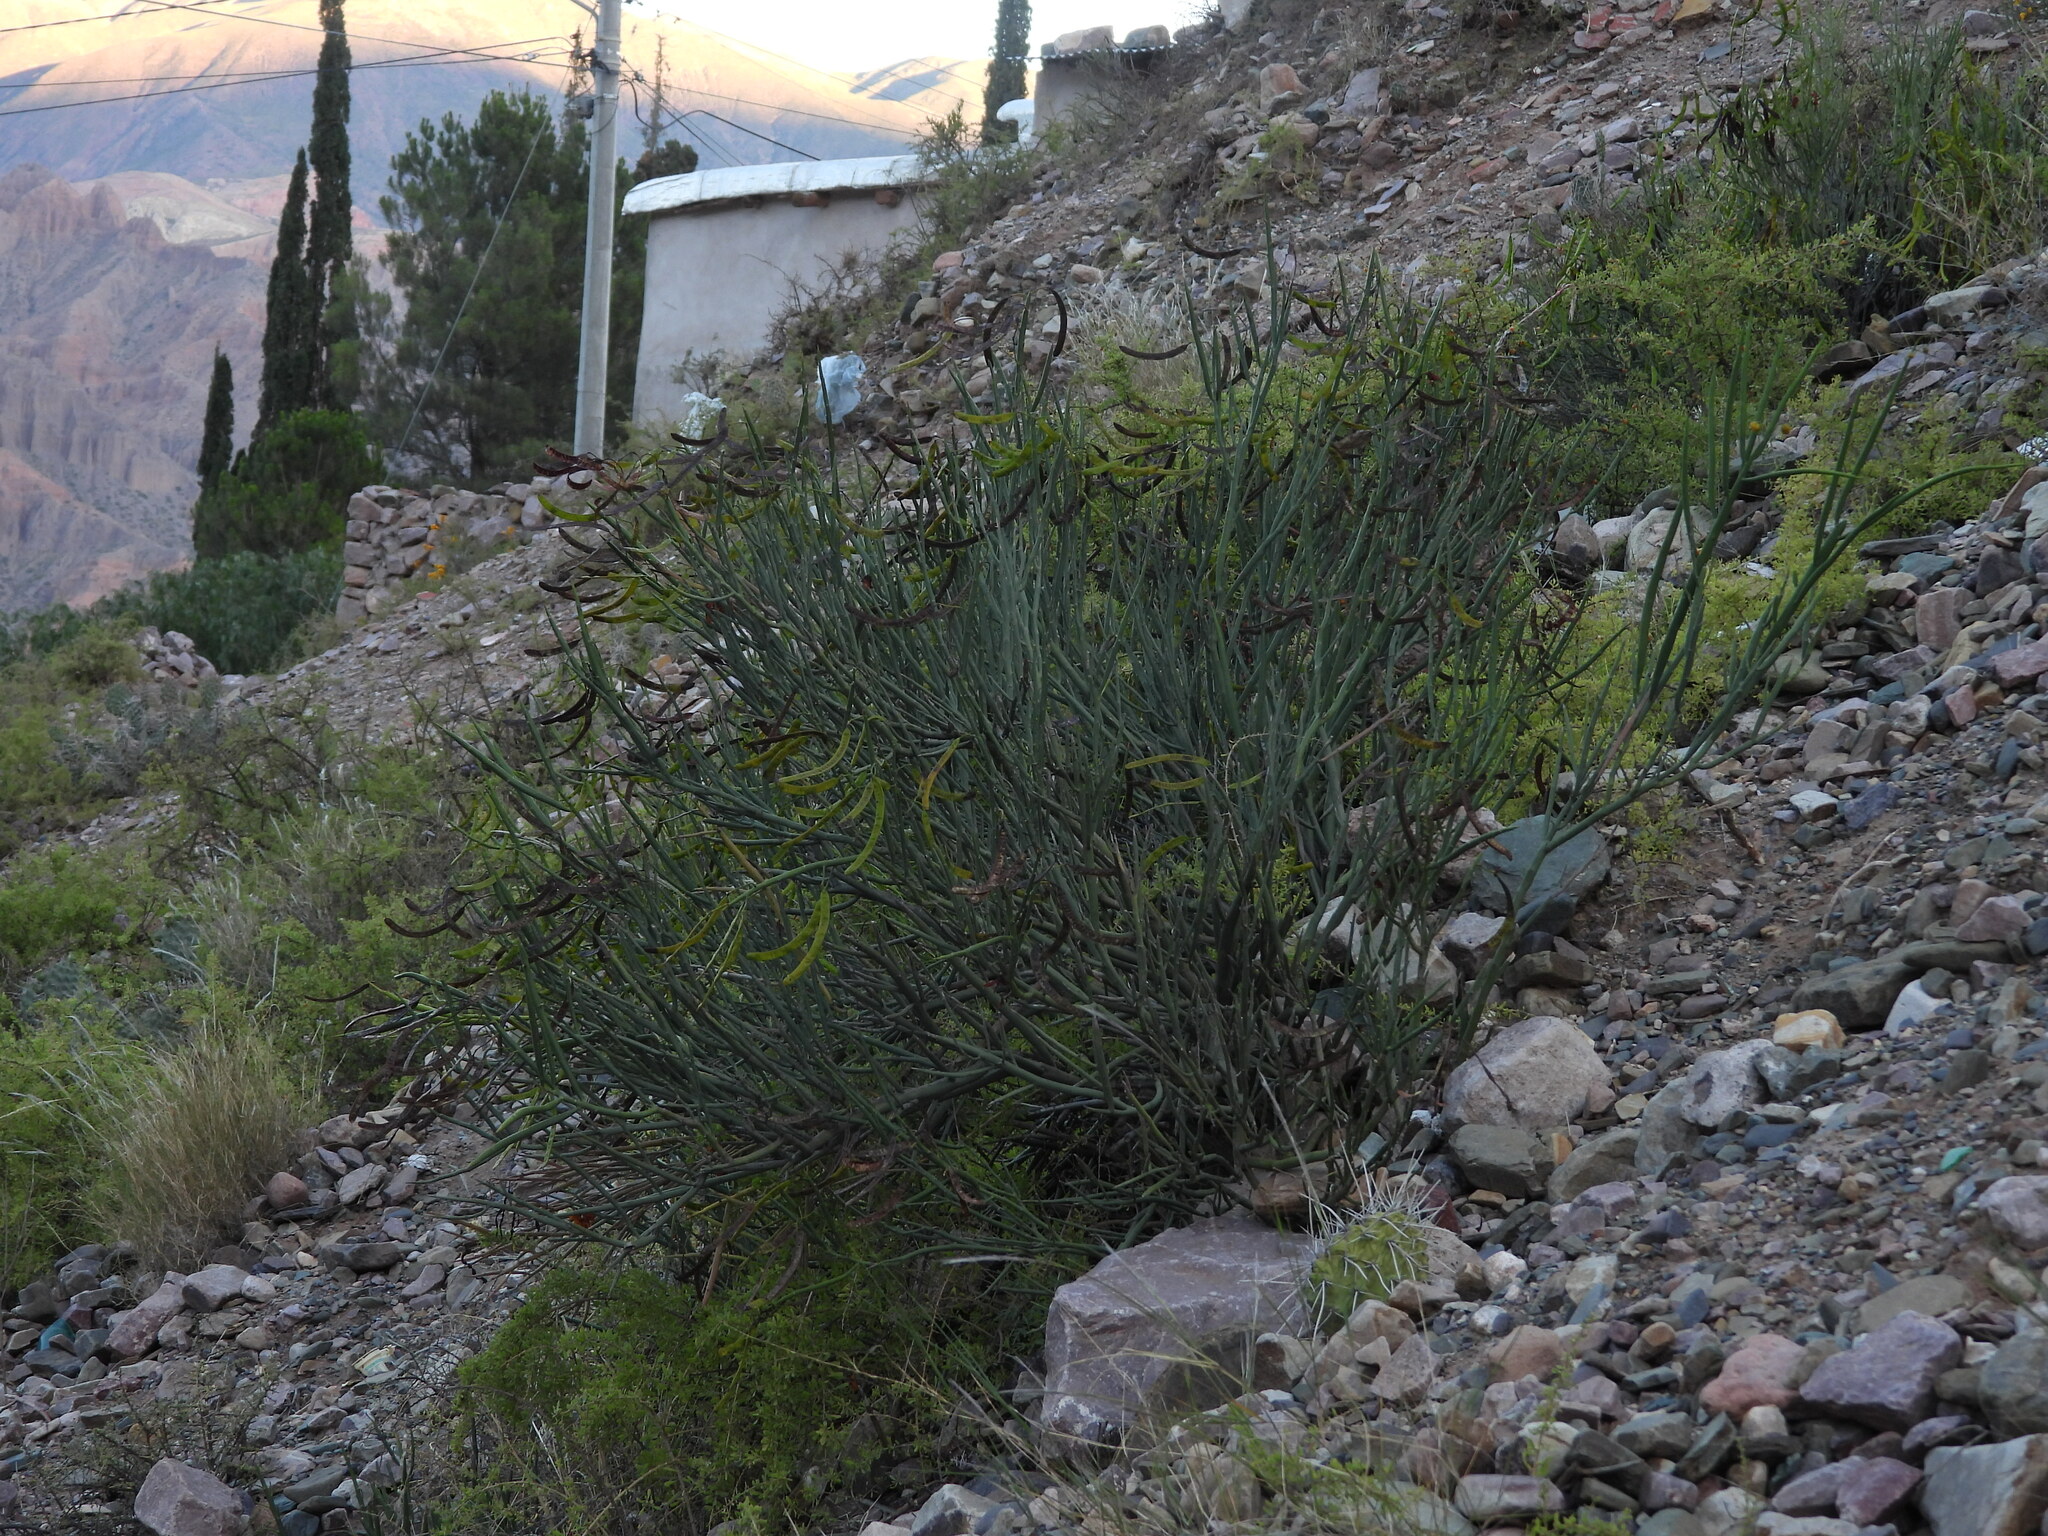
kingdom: Plantae
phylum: Tracheophyta
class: Magnoliopsida
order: Fabales
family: Fabaceae
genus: Senna
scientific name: Senna crassiramea
